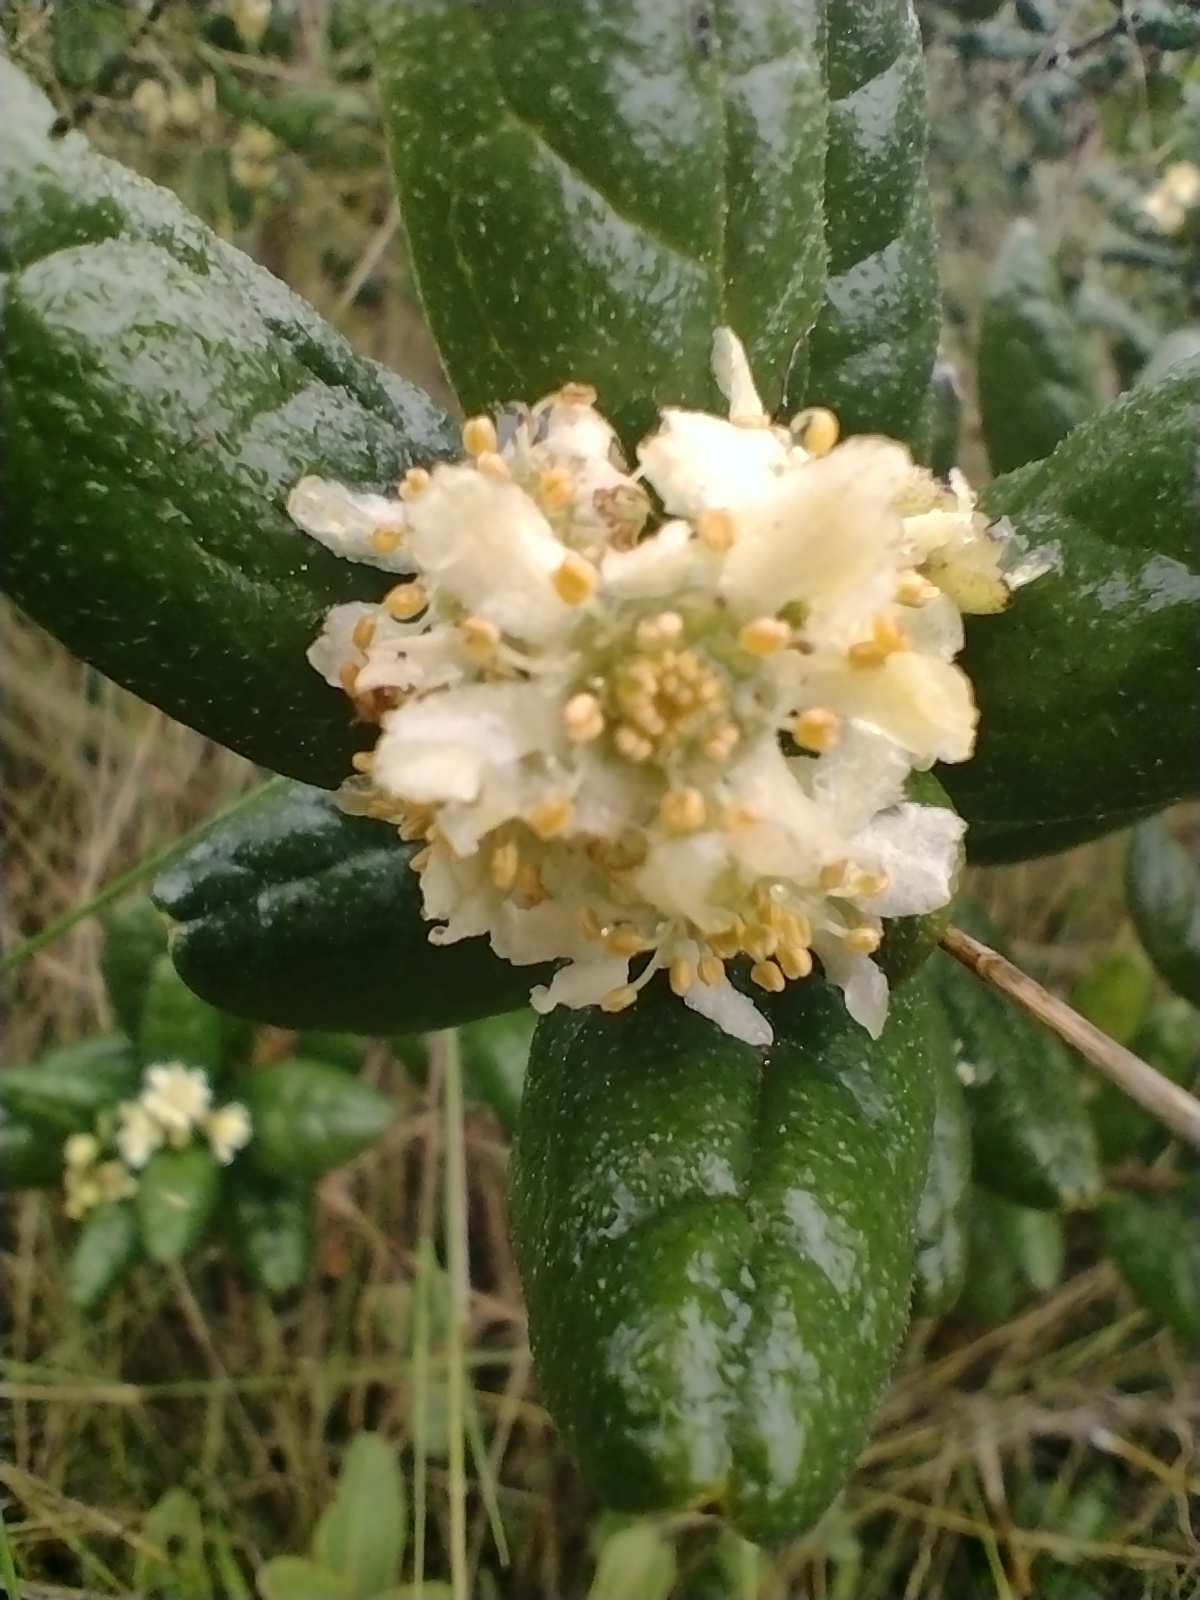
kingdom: Plantae
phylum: Tracheophyta
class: Magnoliopsida
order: Laurales
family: Monimiaceae
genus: Peumus
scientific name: Peumus boldus
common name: Boldo
